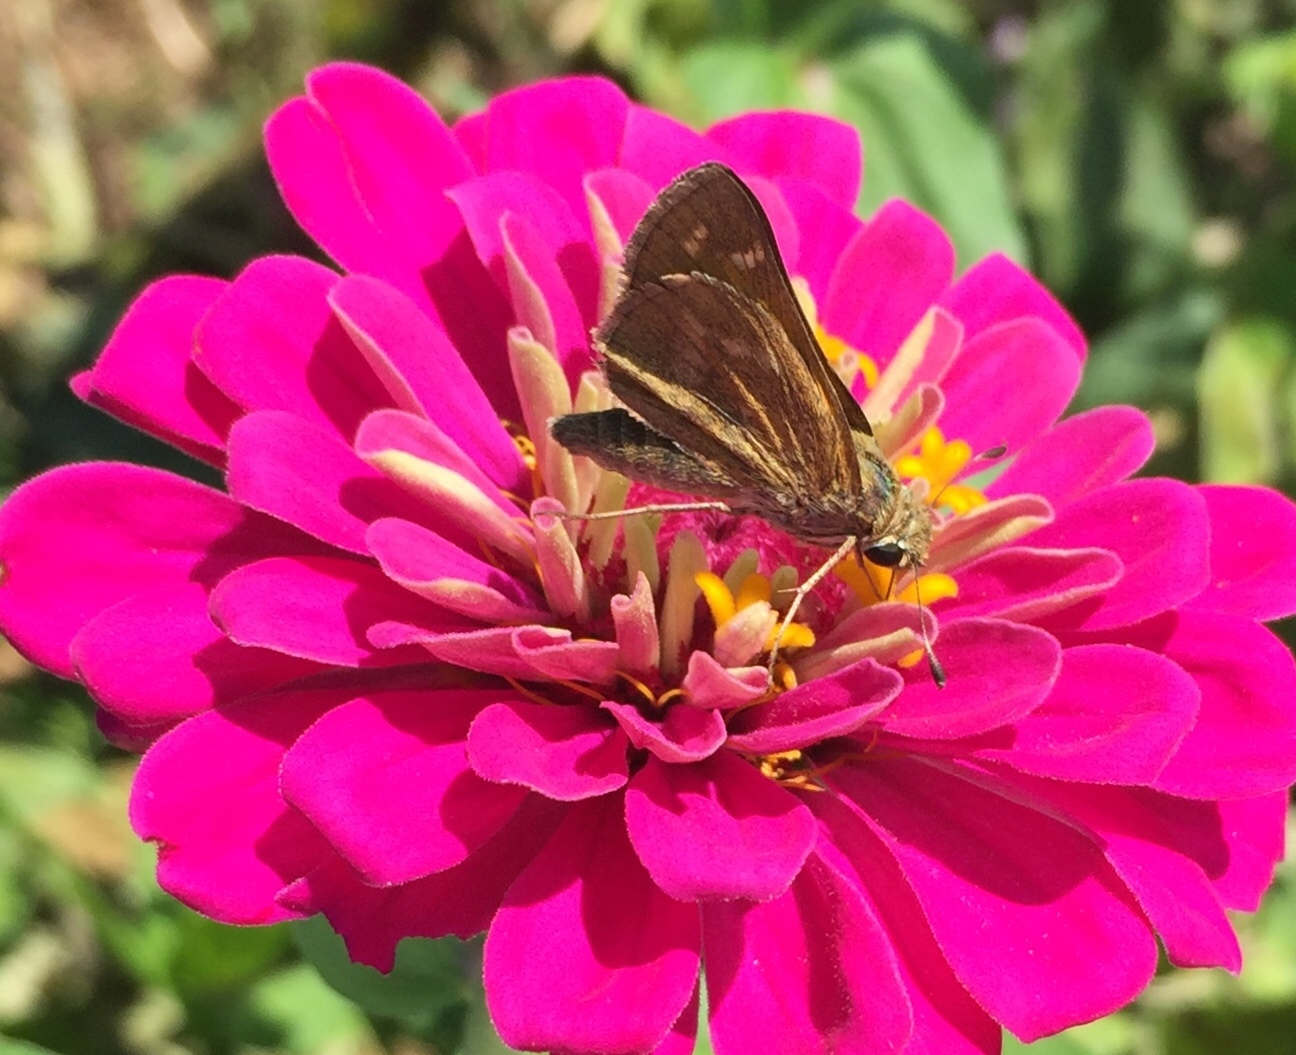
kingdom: Animalia
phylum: Arthropoda
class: Insecta
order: Lepidoptera
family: Hesperiidae
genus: Atalopedes
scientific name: Atalopedes
